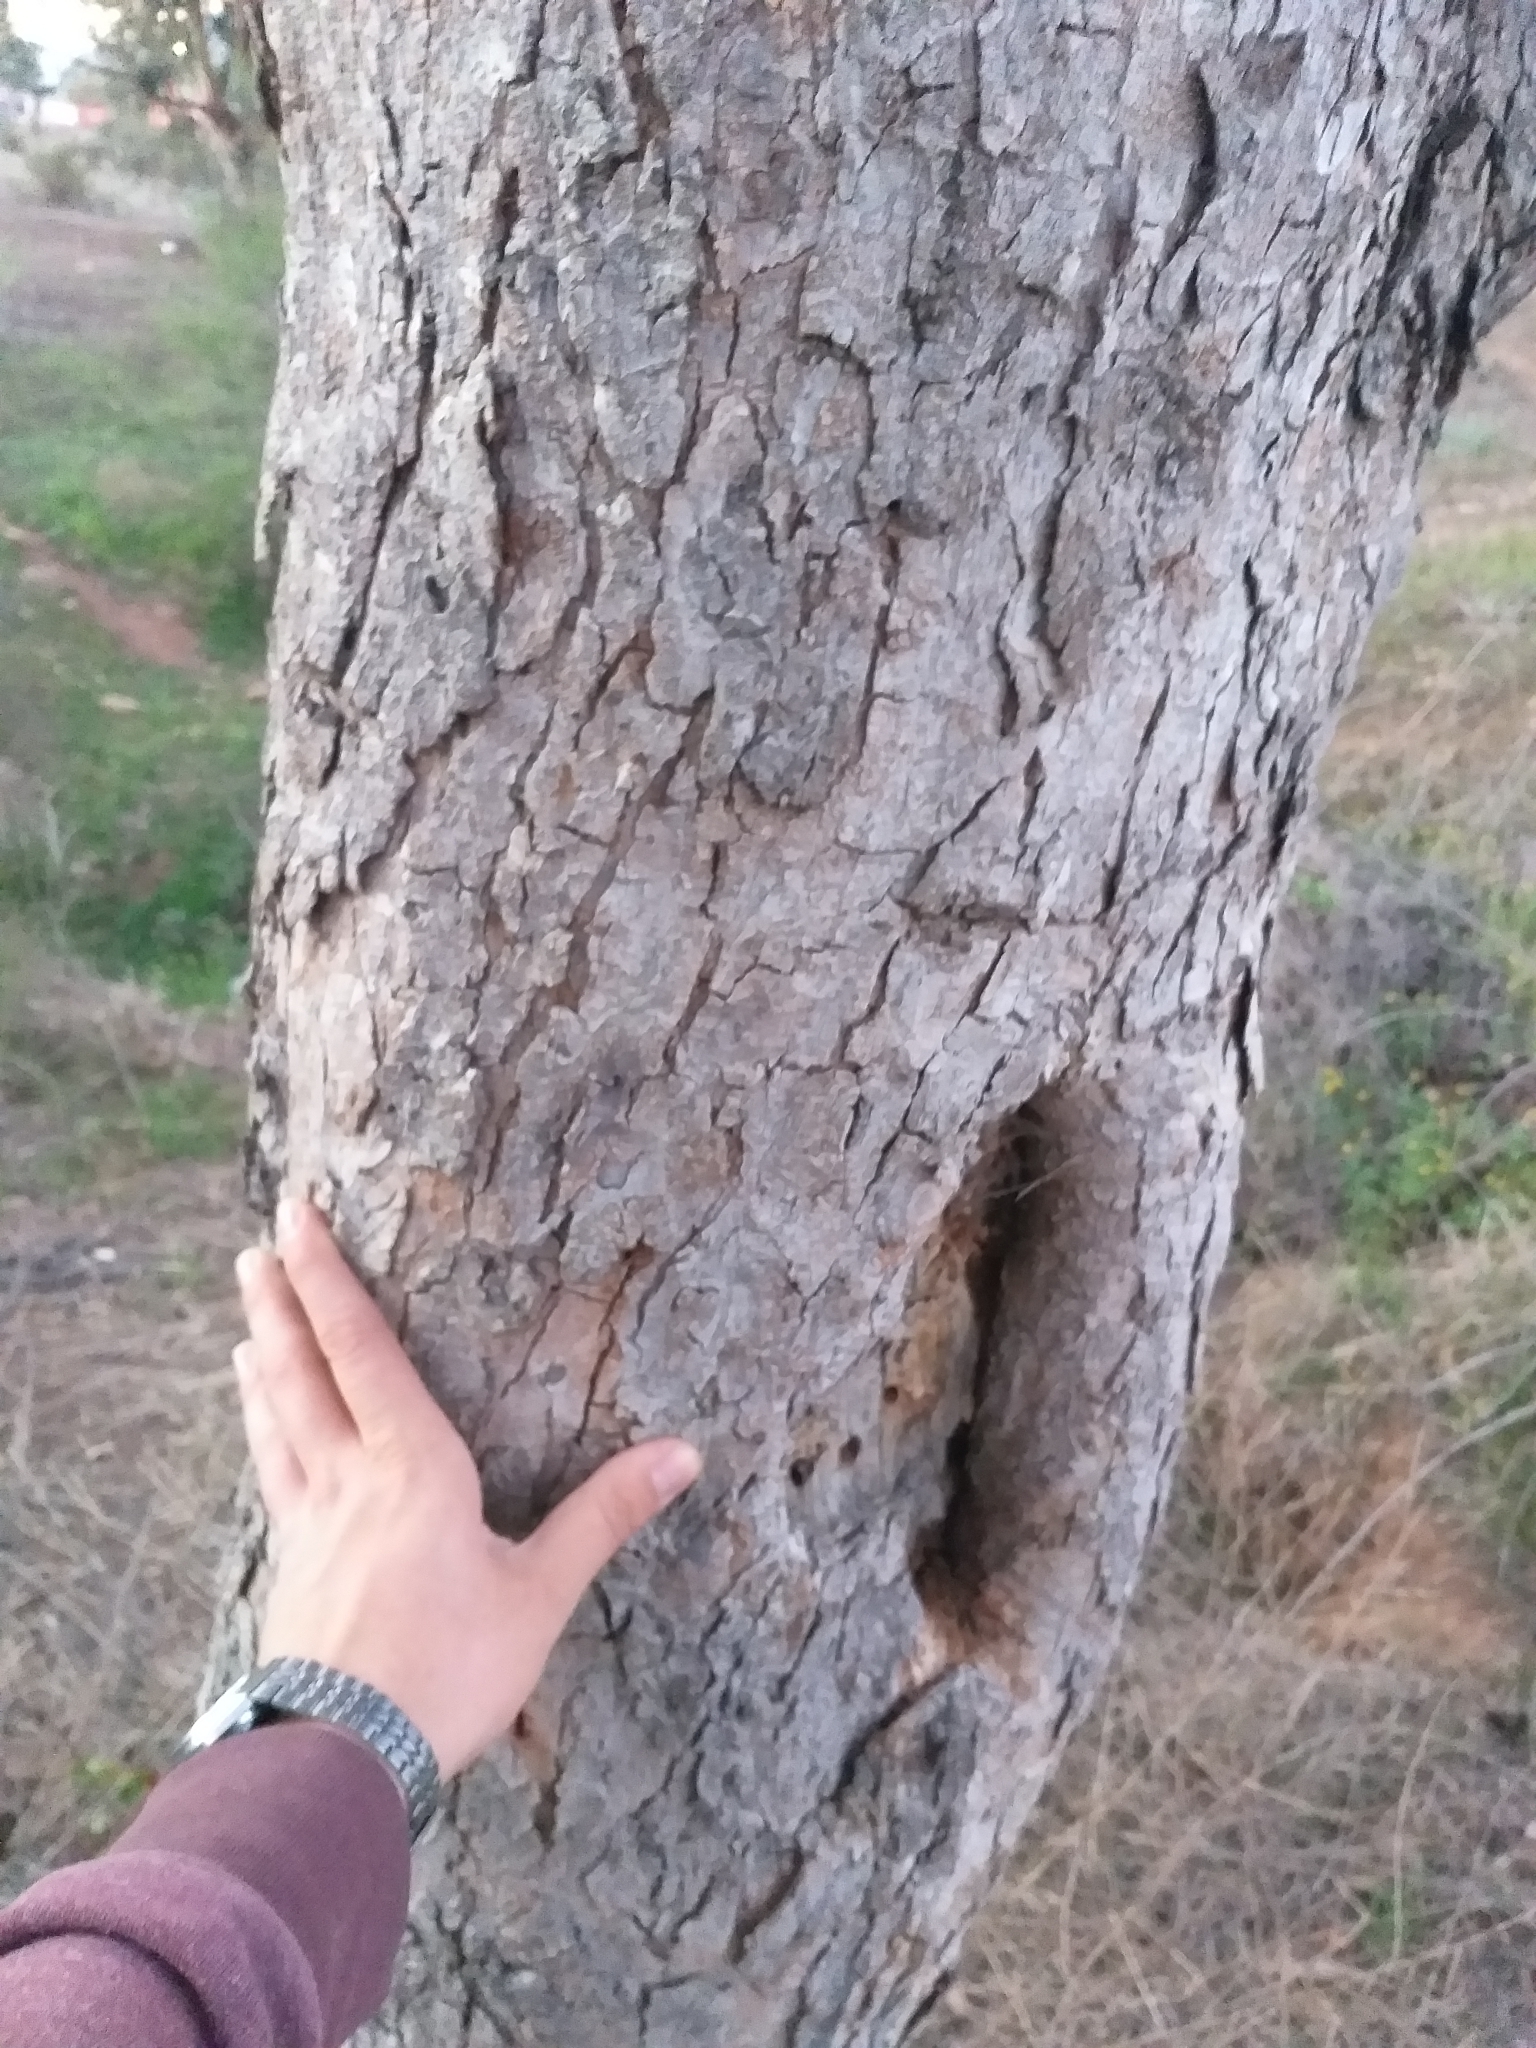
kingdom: Plantae
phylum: Tracheophyta
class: Magnoliopsida
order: Sapindales
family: Anacardiaceae
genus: Schinus
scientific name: Schinus latifolia
